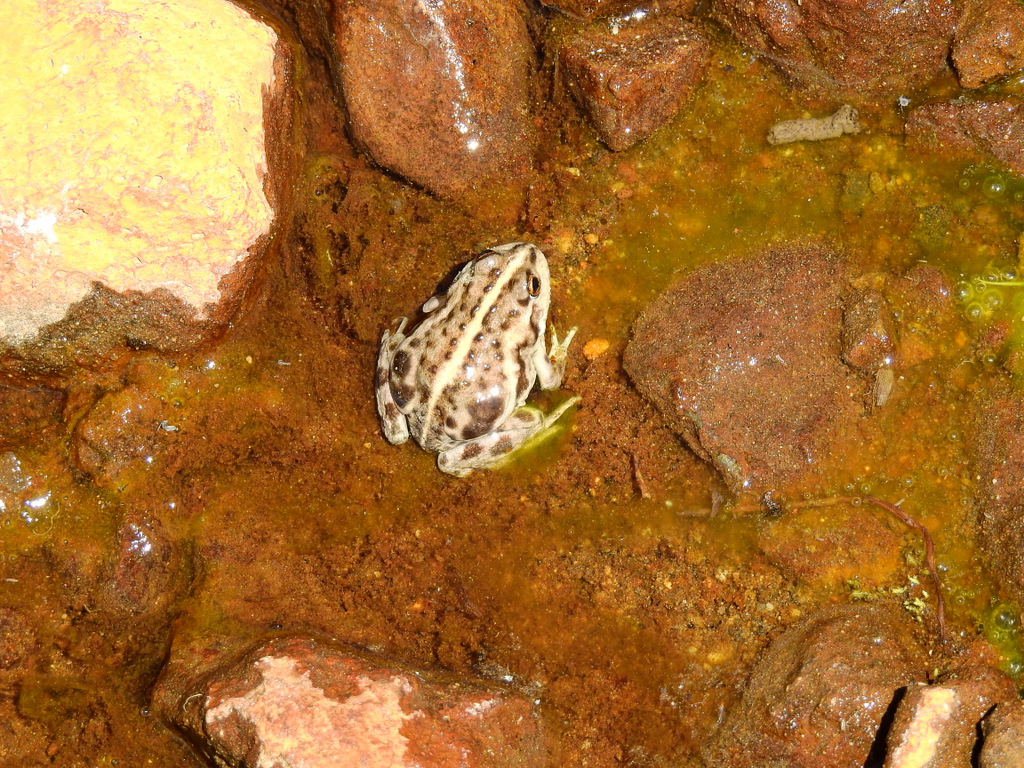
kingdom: Animalia
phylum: Chordata
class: Amphibia
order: Anura
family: Leptodactylidae
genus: Pleurodema
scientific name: Pleurodema bufoninum
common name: Large four-eyed frog
